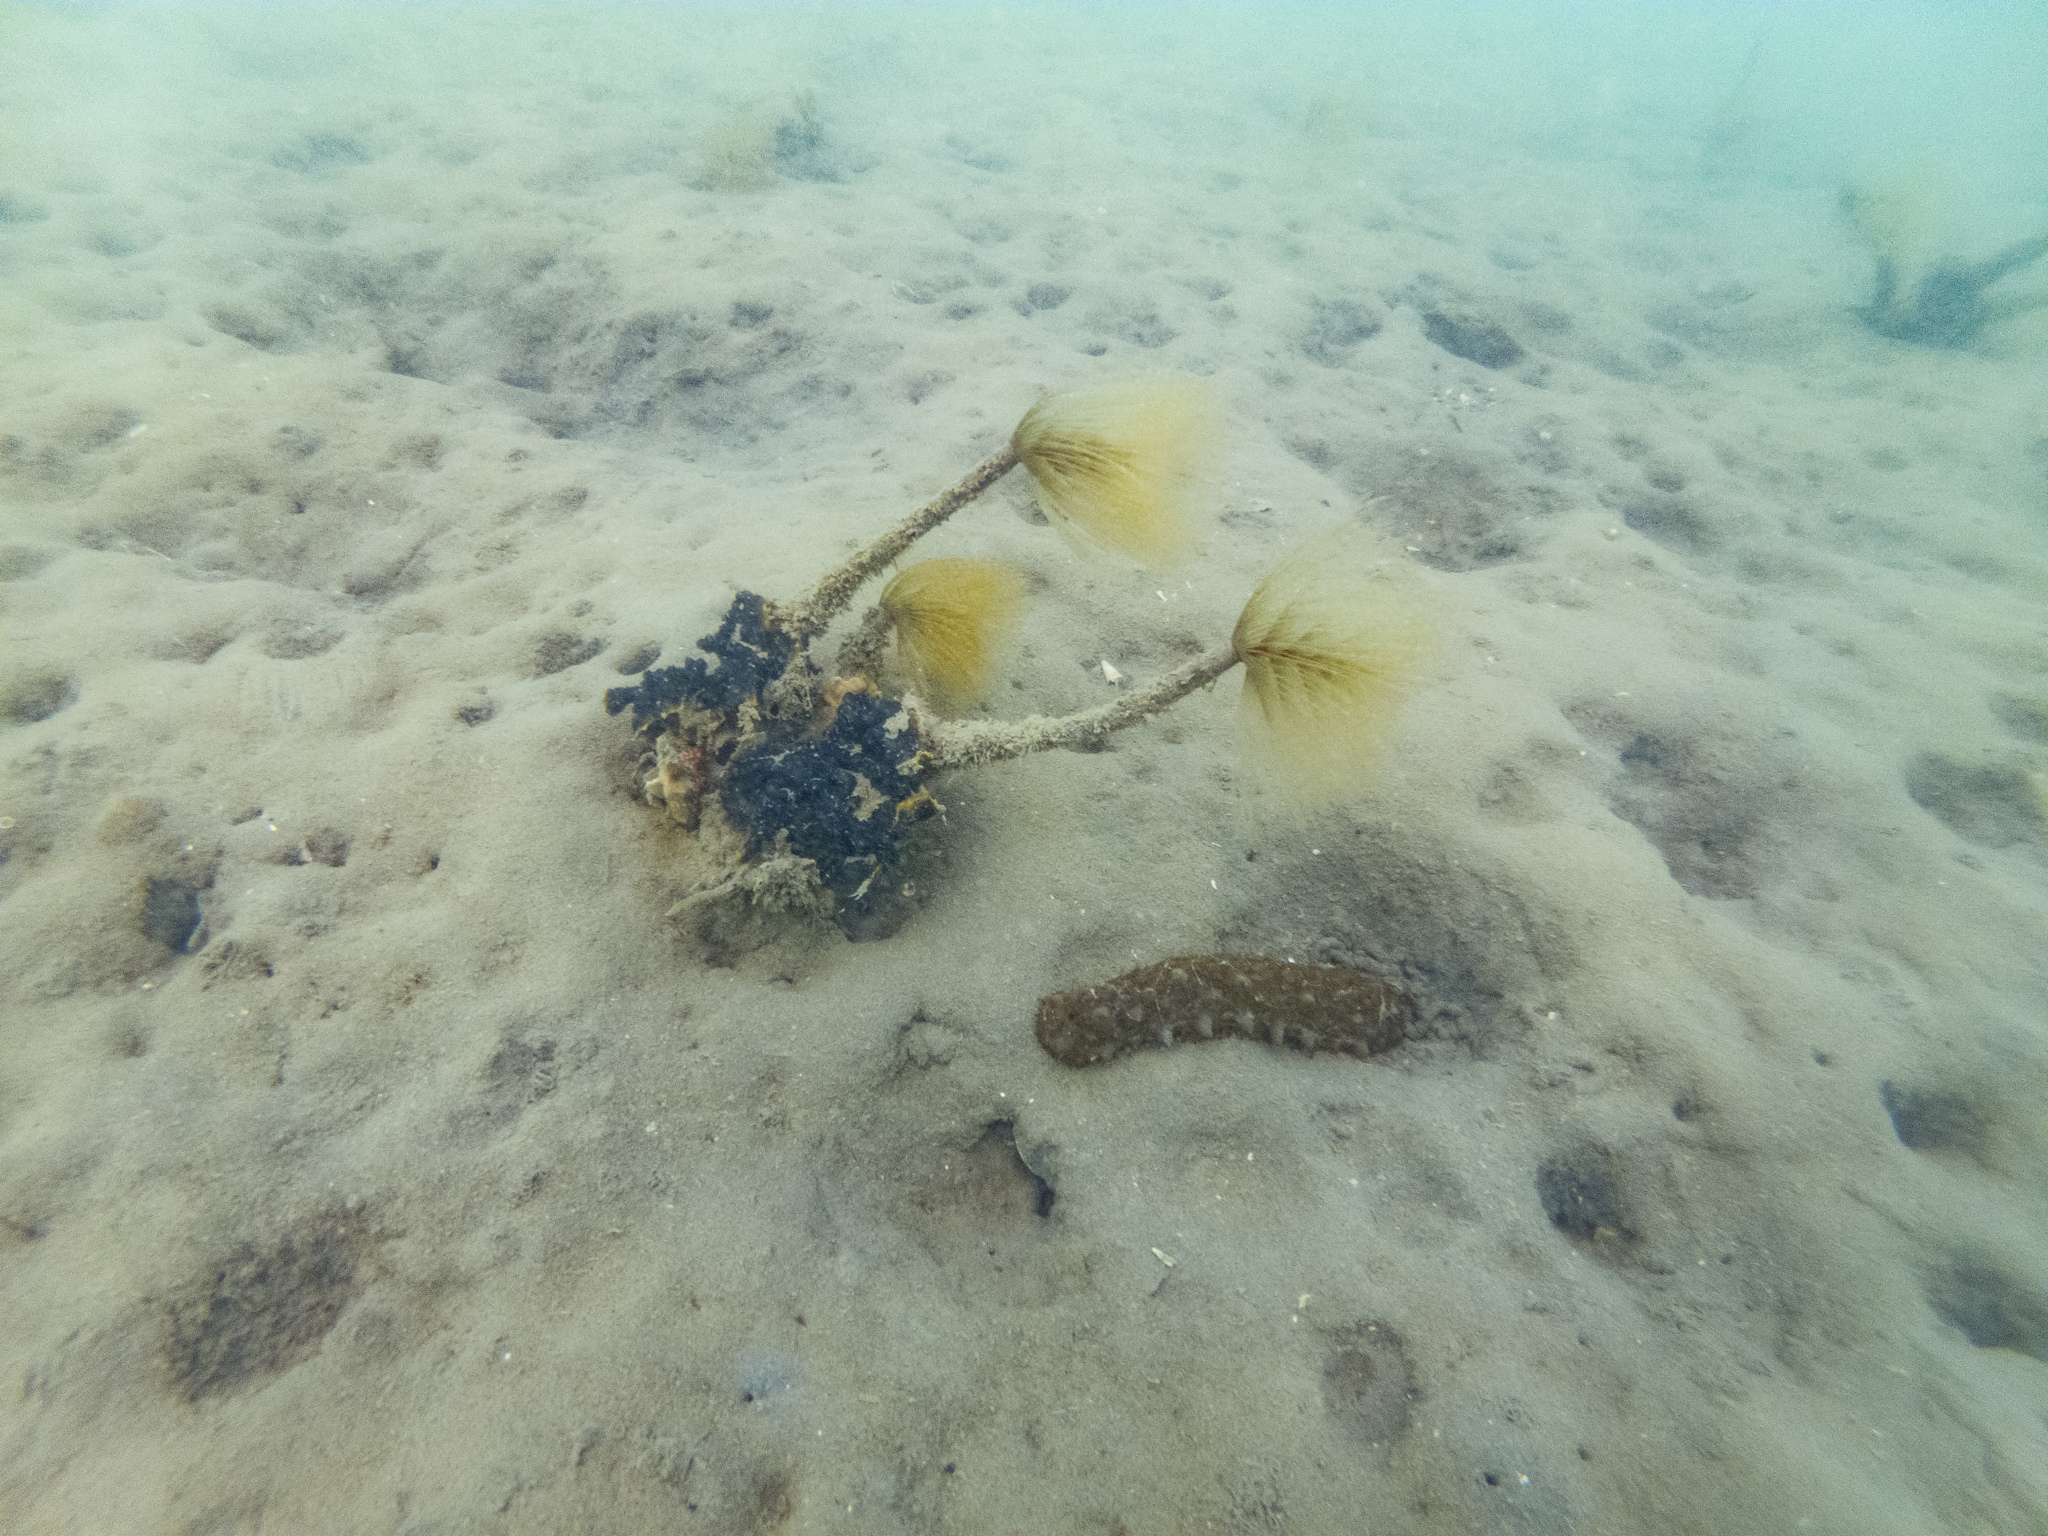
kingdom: Animalia
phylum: Annelida
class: Polychaeta
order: Sabellida
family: Sabellidae
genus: Sabella
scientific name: Sabella spallanzanii
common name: Feather duster worm
